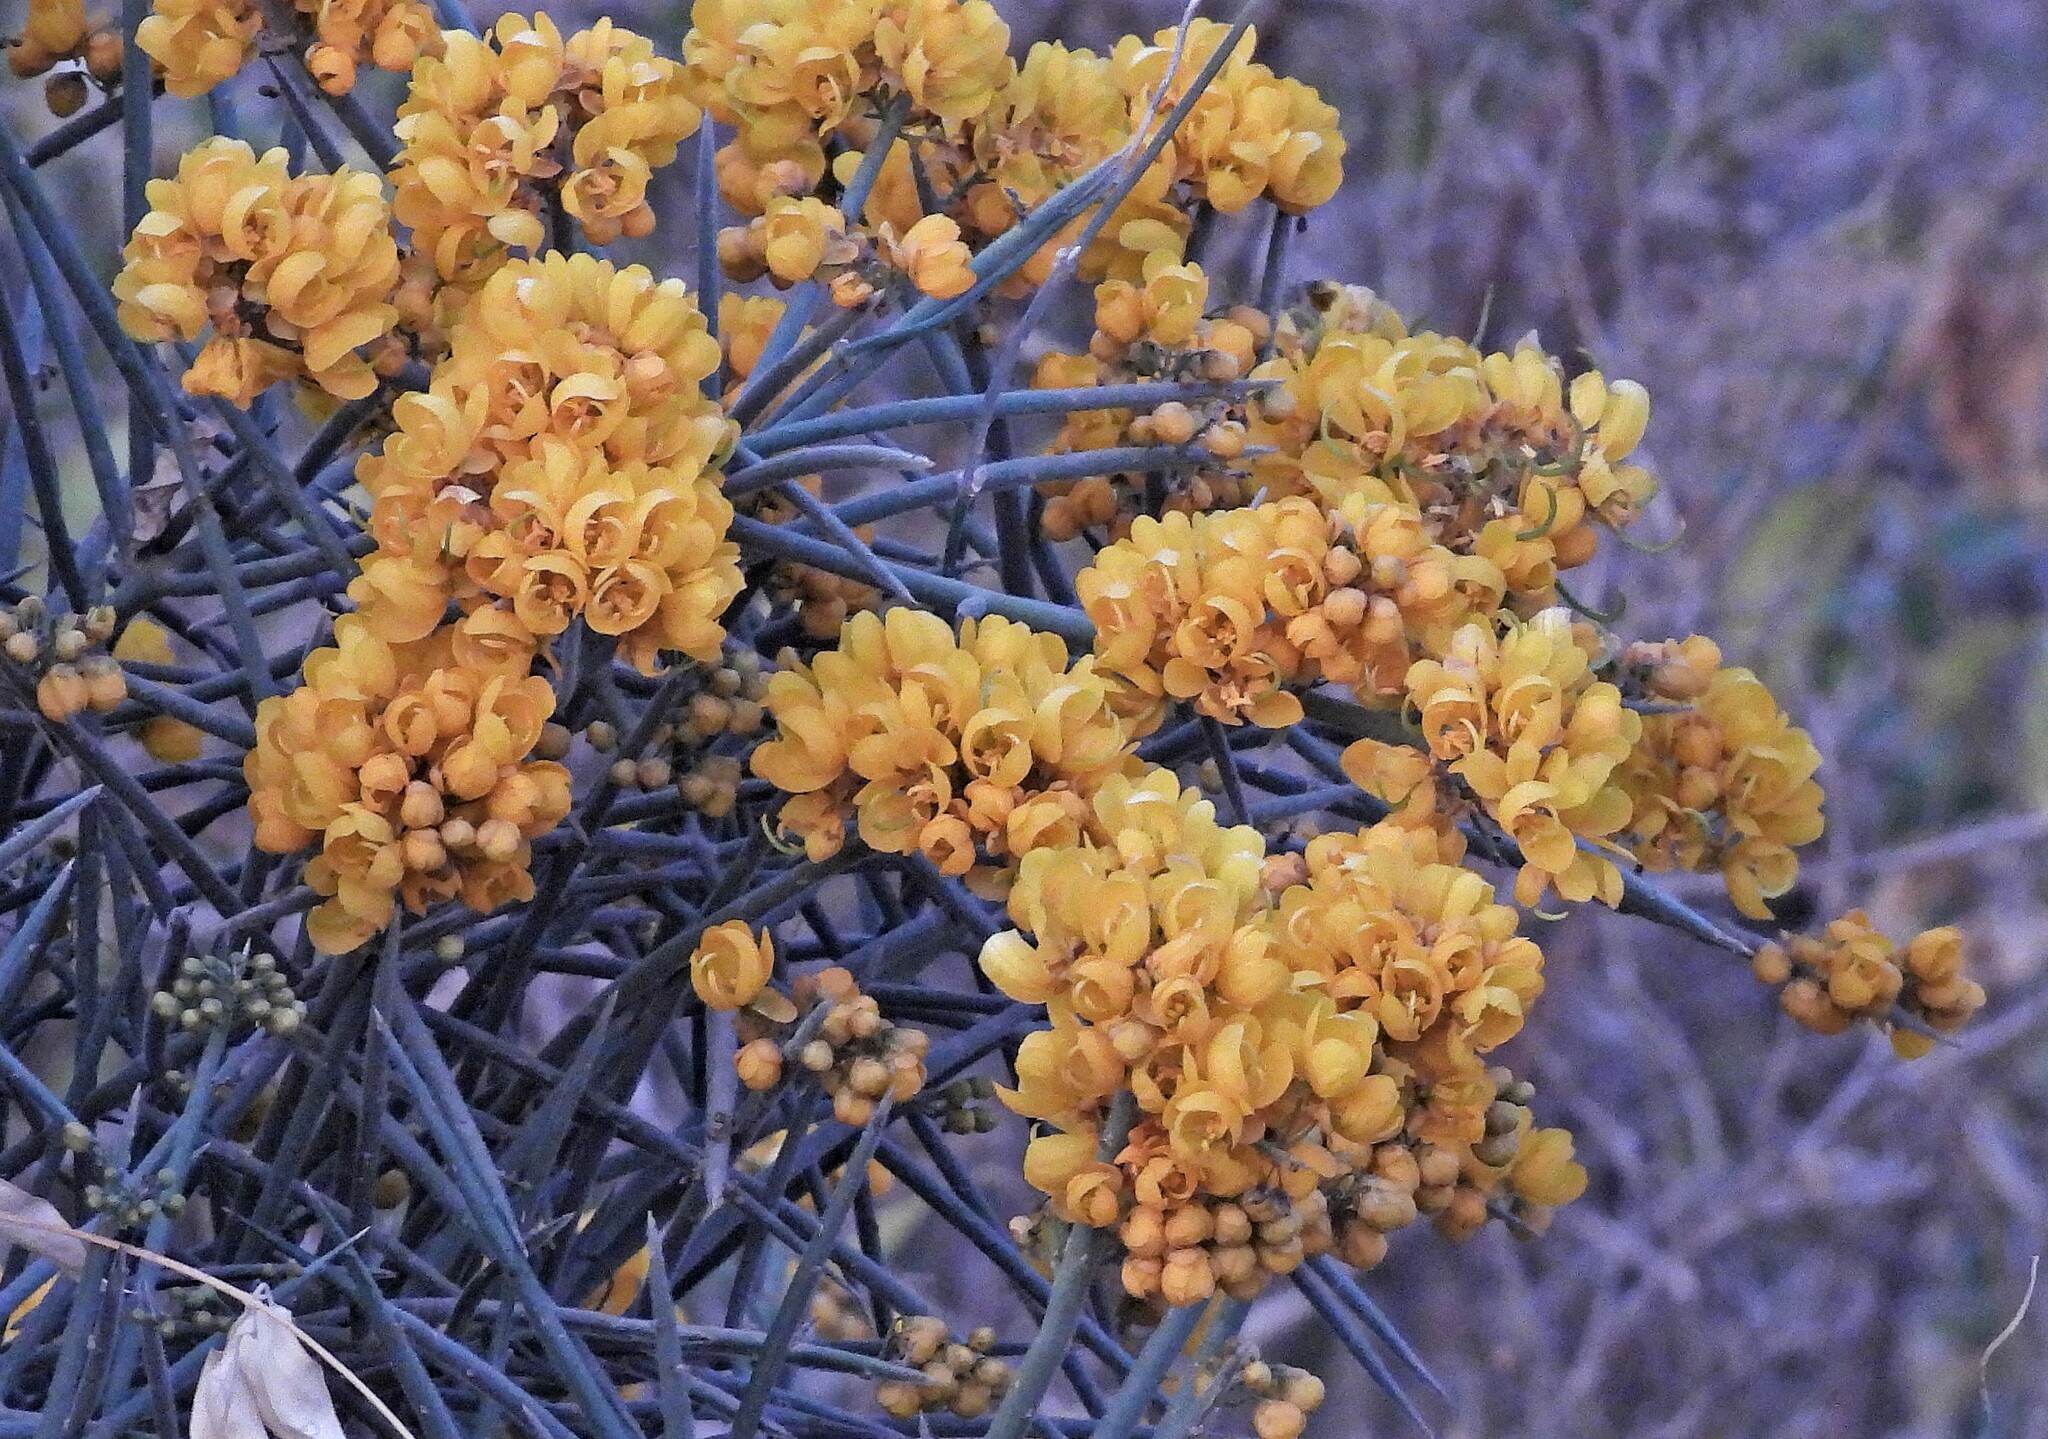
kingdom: Plantae
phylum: Tracheophyta
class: Magnoliopsida
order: Fabales
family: Fabaceae
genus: Senna
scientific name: Senna spiniflora
